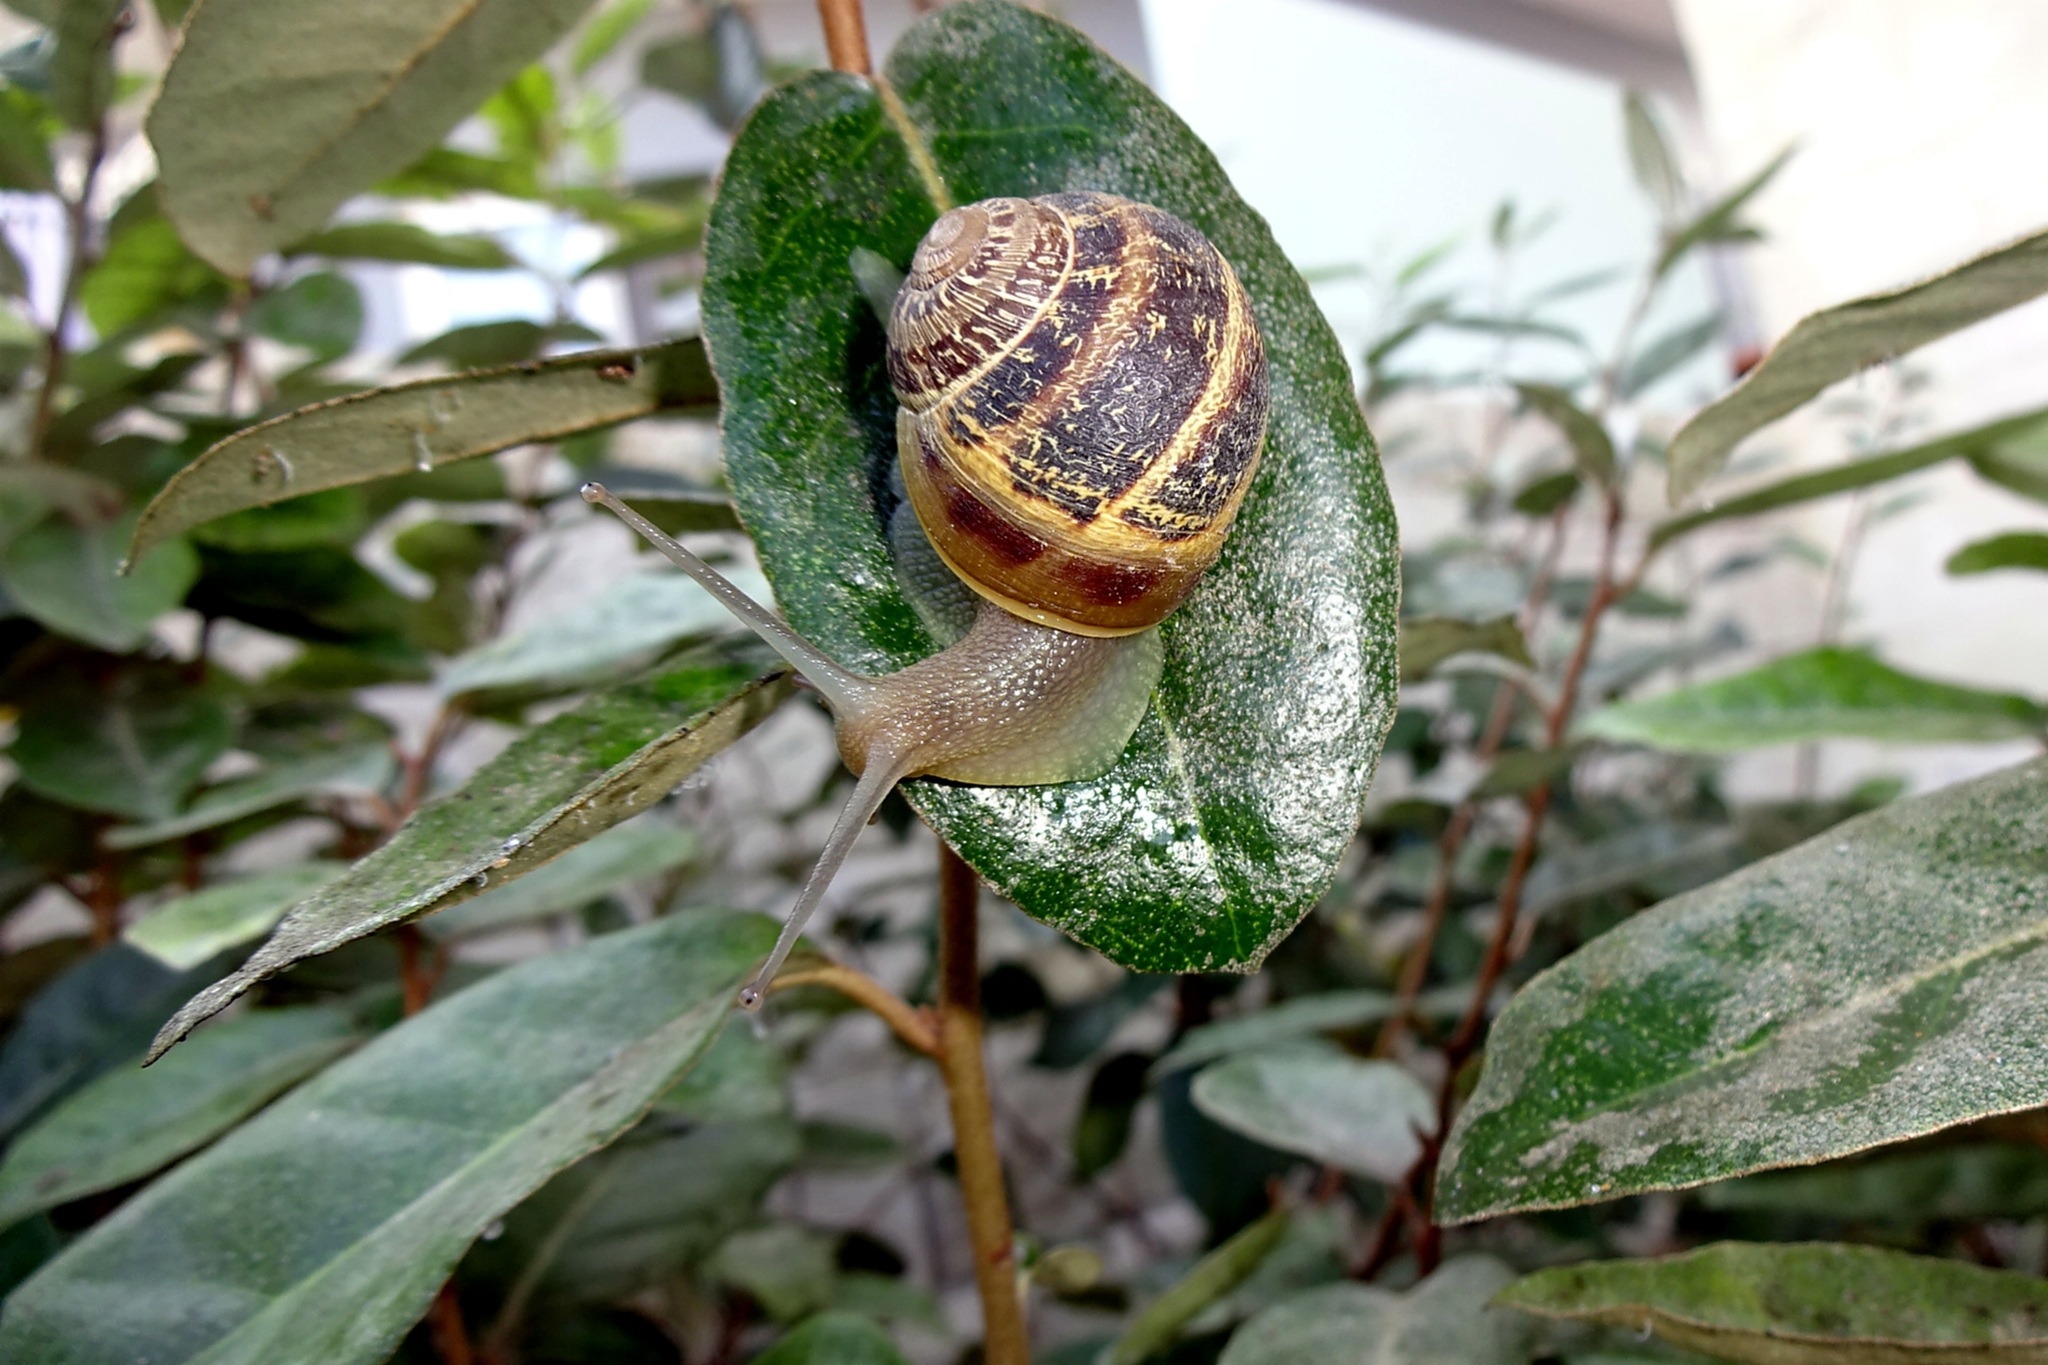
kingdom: Animalia
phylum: Mollusca
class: Gastropoda
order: Stylommatophora
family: Helicidae
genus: Cornu
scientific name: Cornu aspersum
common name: Brown garden snail
